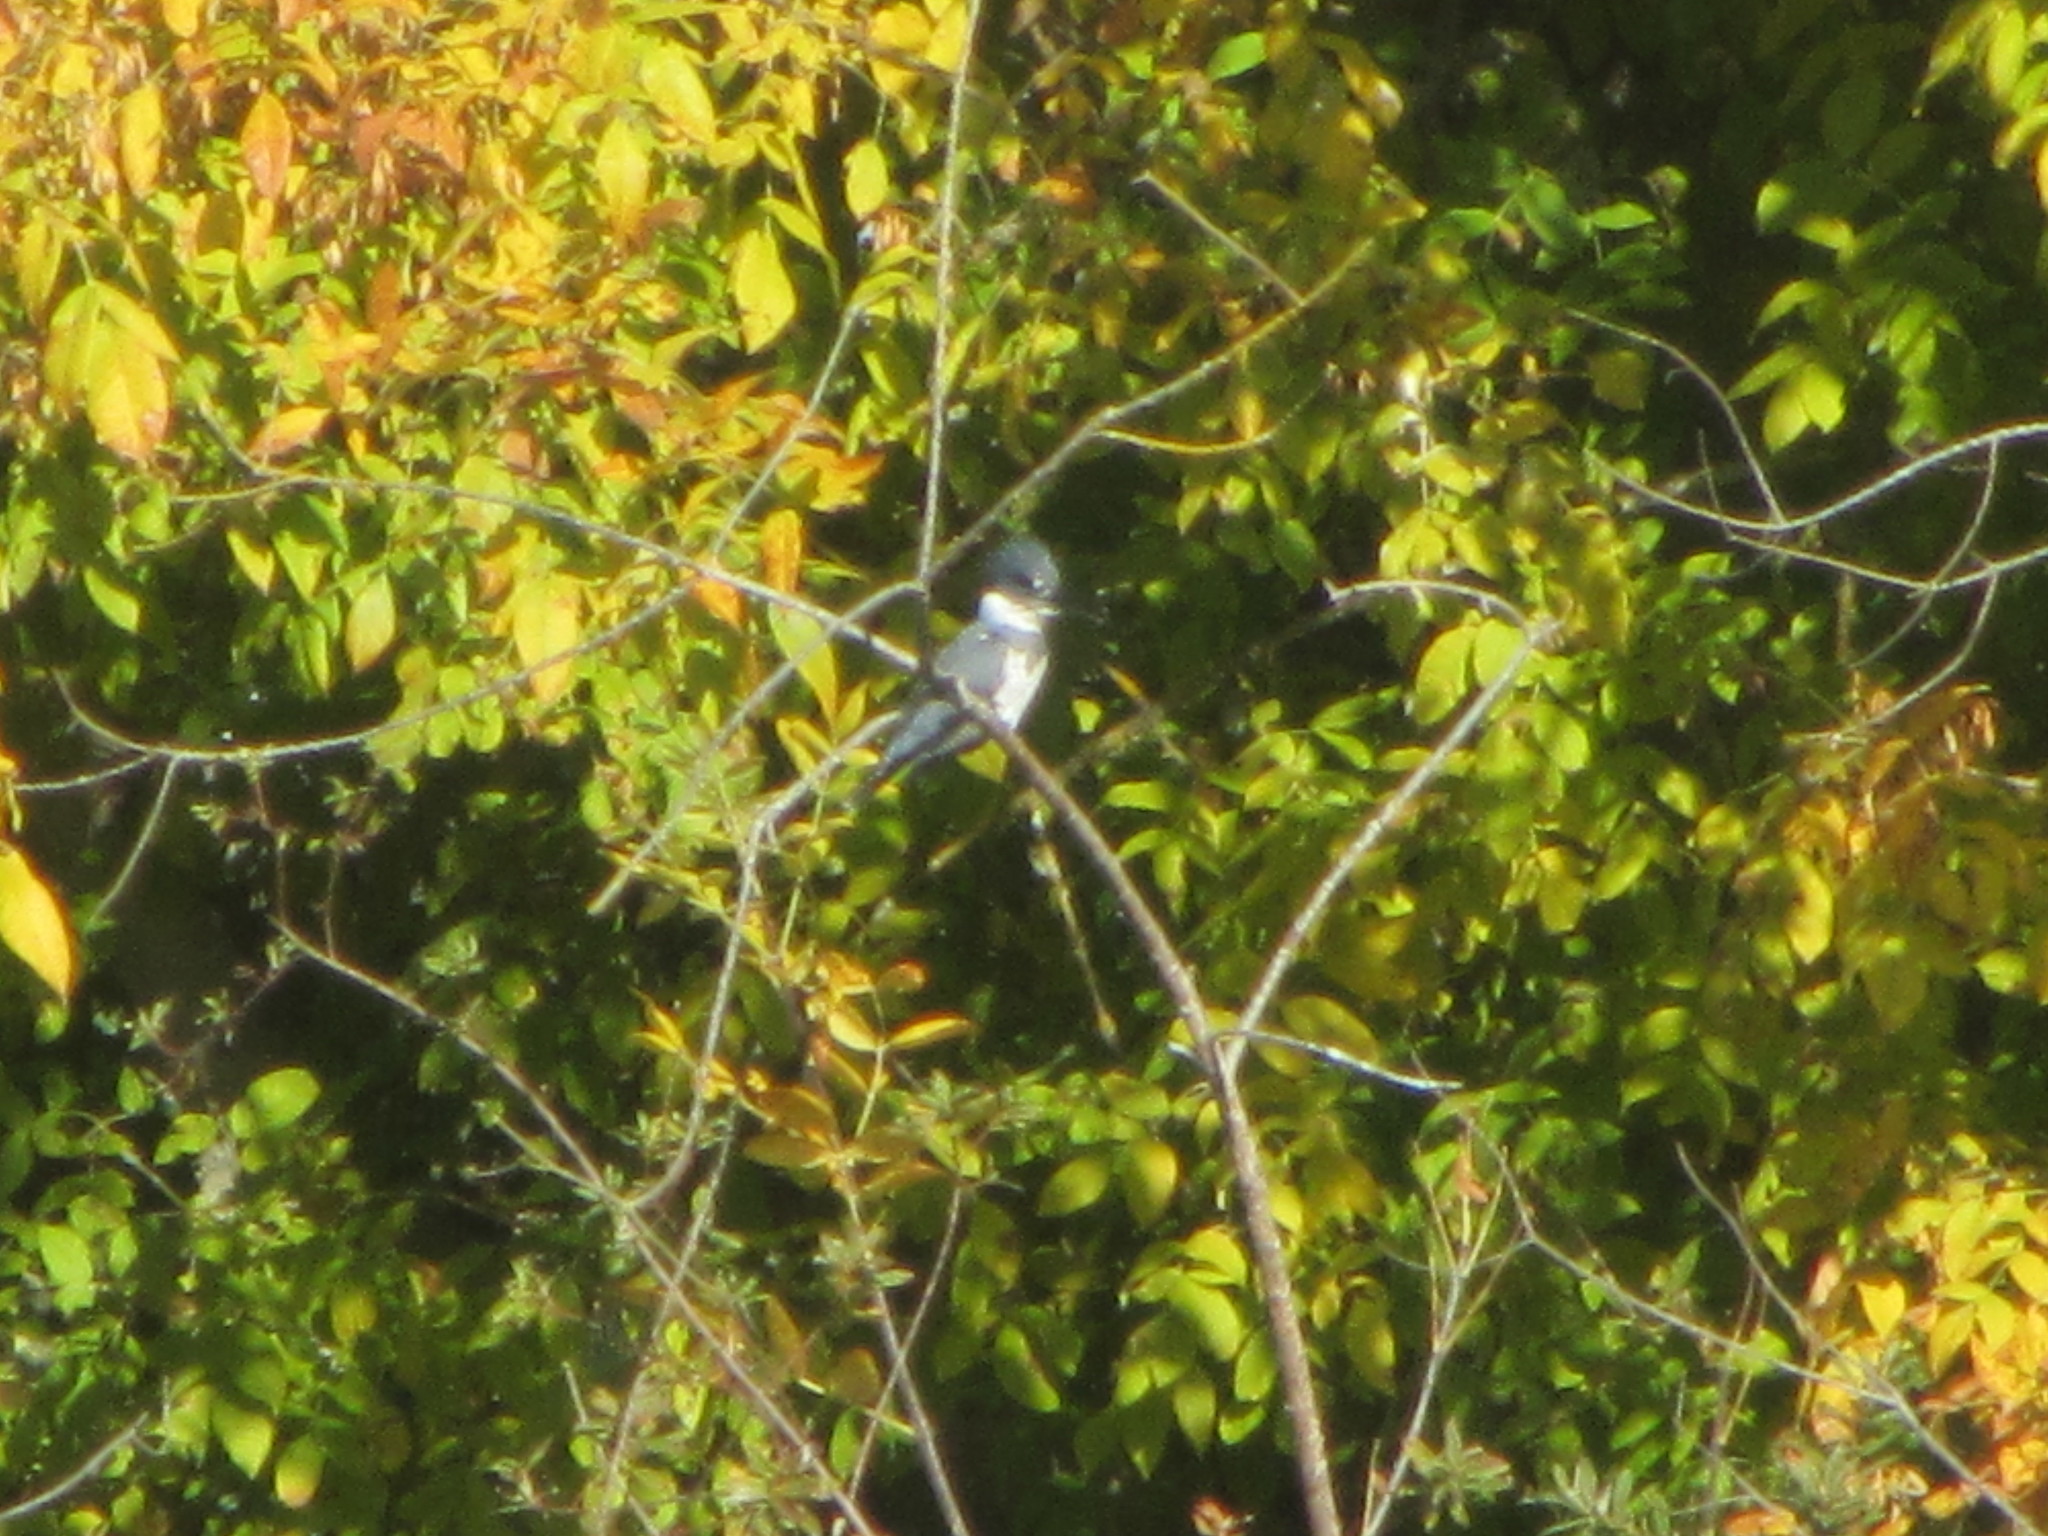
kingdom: Animalia
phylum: Chordata
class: Aves
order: Coraciiformes
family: Alcedinidae
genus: Megaceryle
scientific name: Megaceryle alcyon
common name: Belted kingfisher
